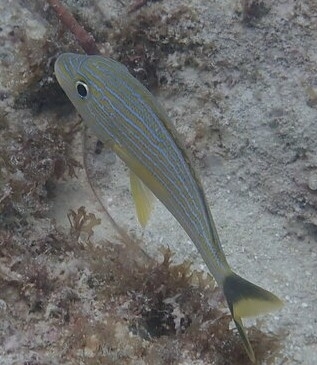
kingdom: Animalia
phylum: Chordata
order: Perciformes
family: Haemulidae
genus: Haemulon
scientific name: Haemulon sciurus
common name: Bluestriped grunt
